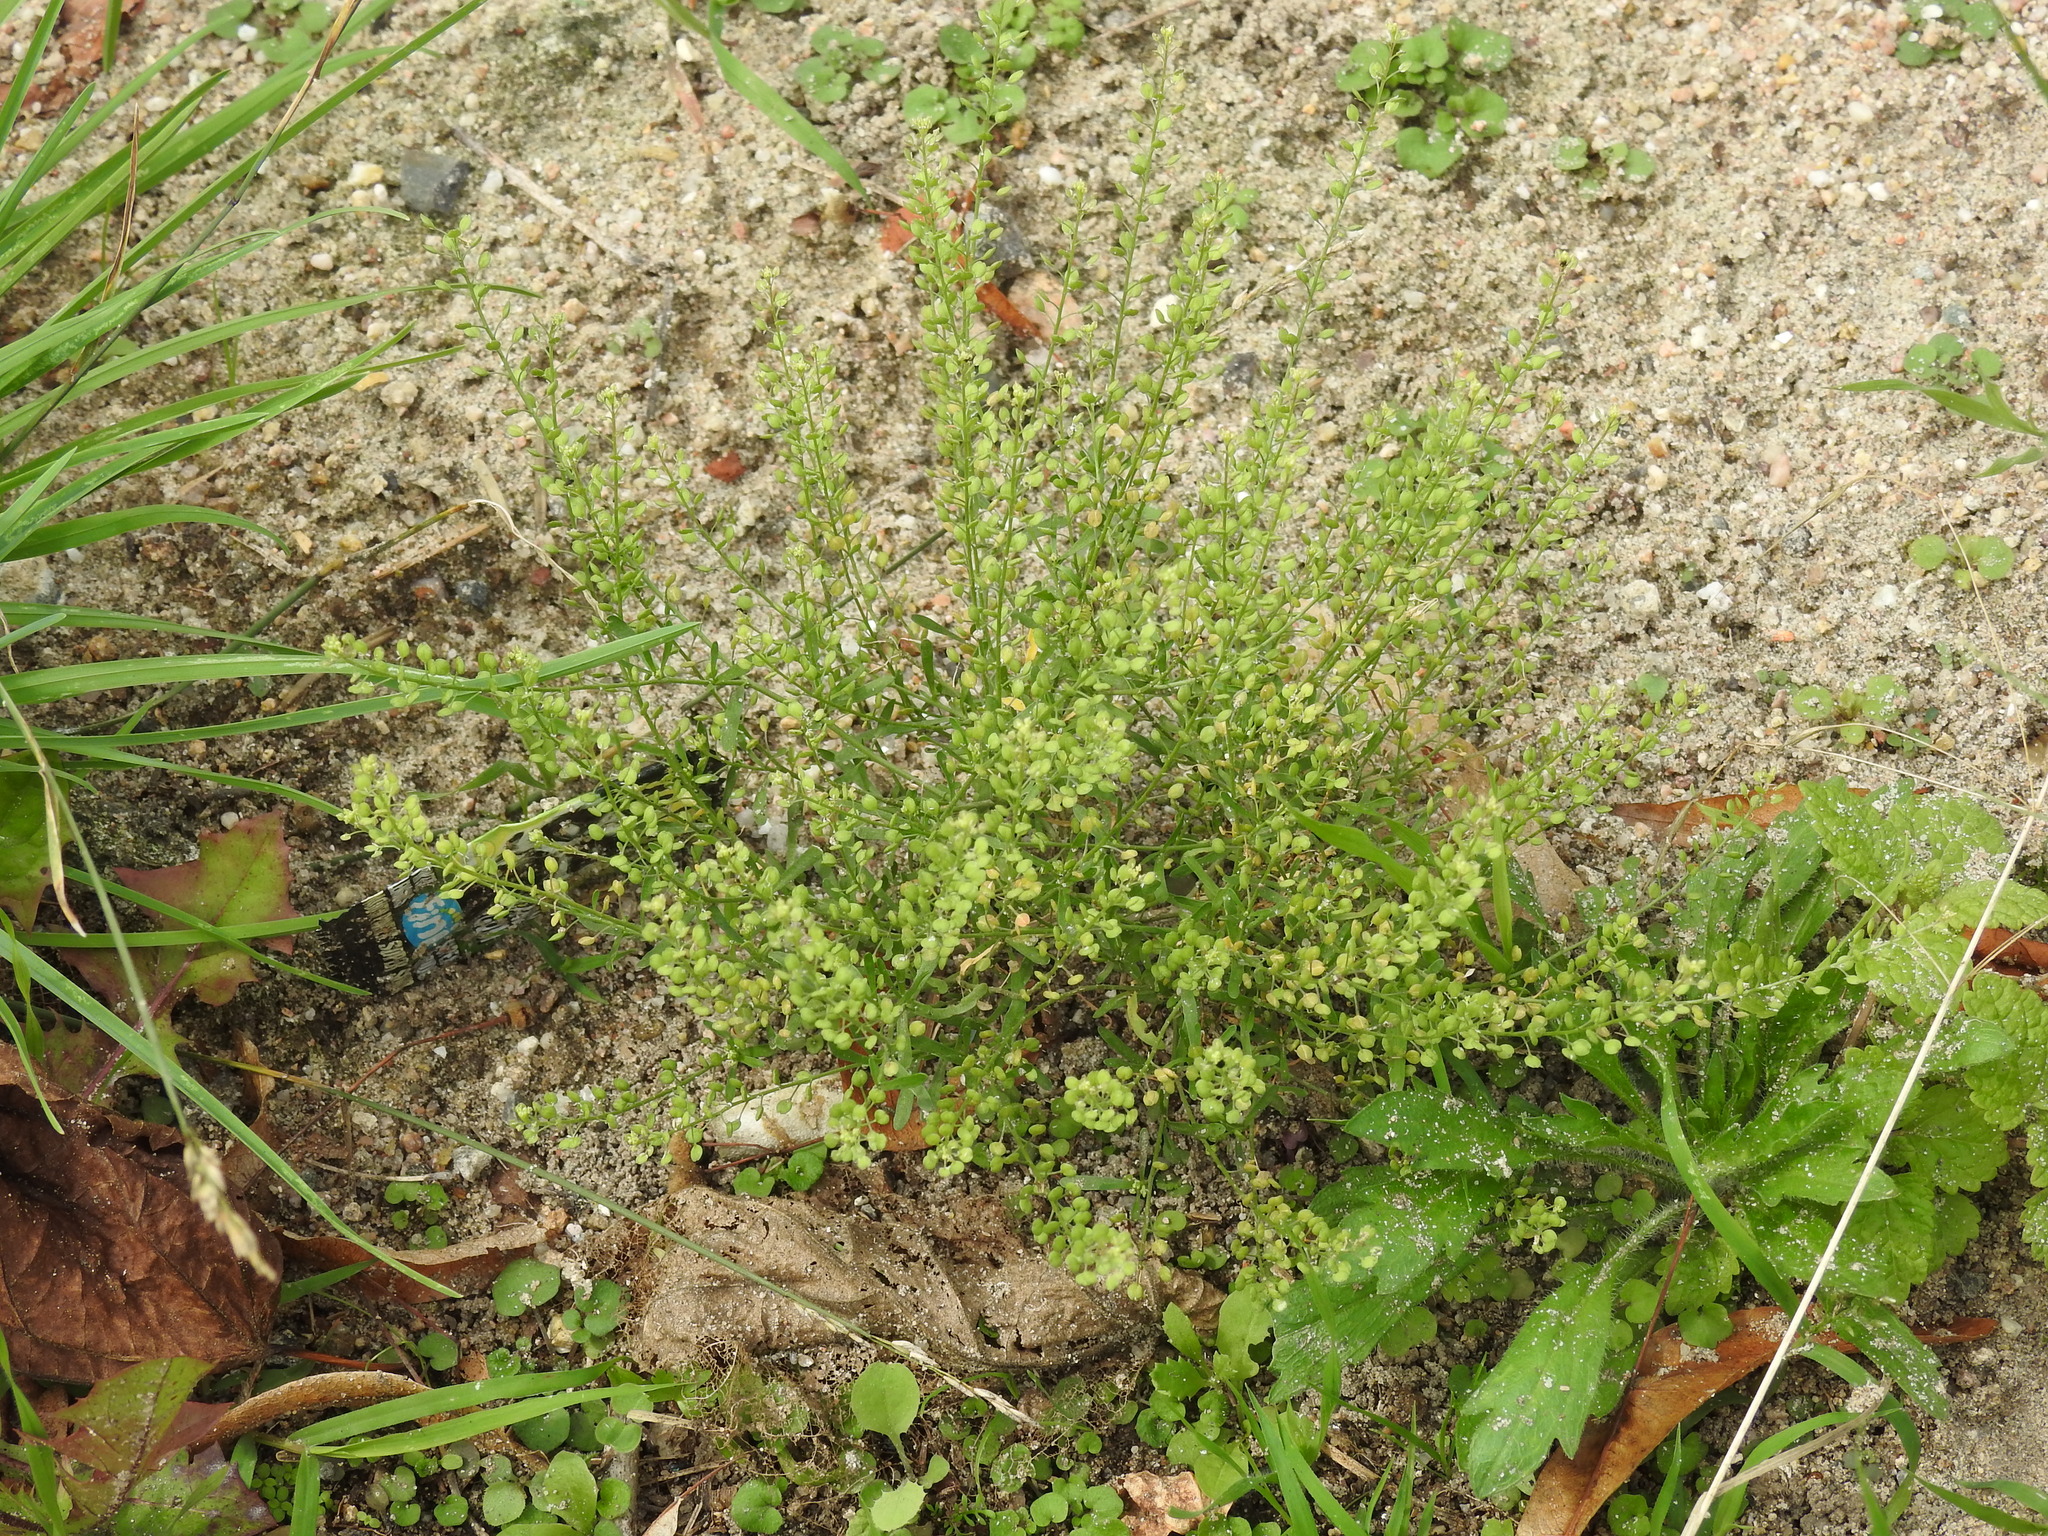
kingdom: Plantae
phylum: Tracheophyta
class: Magnoliopsida
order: Brassicales
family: Brassicaceae
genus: Lepidium
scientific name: Lepidium virginicum
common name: Least pepperwort
